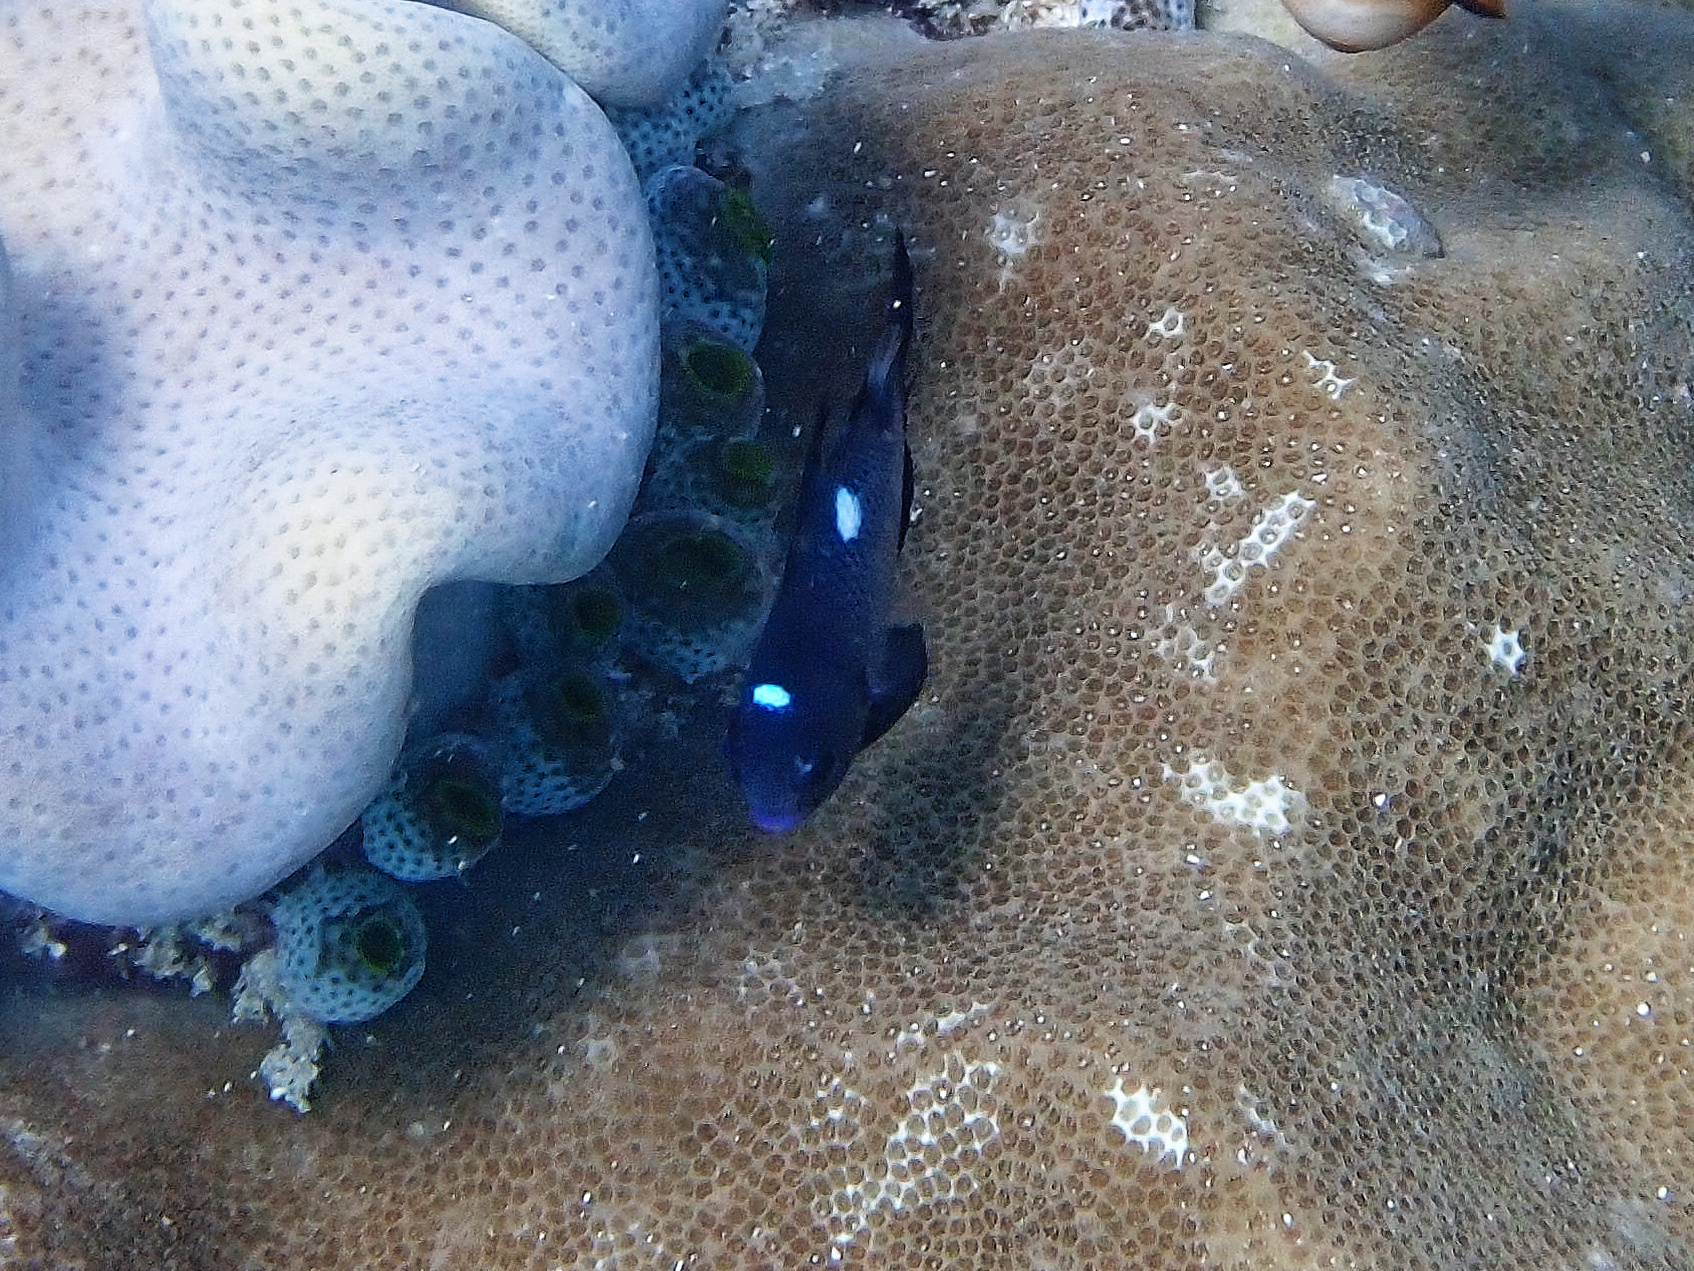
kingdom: Animalia
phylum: Chordata
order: Perciformes
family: Pomacentridae
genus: Dascyllus
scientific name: Dascyllus trimaculatus
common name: Threespot dascyllus
